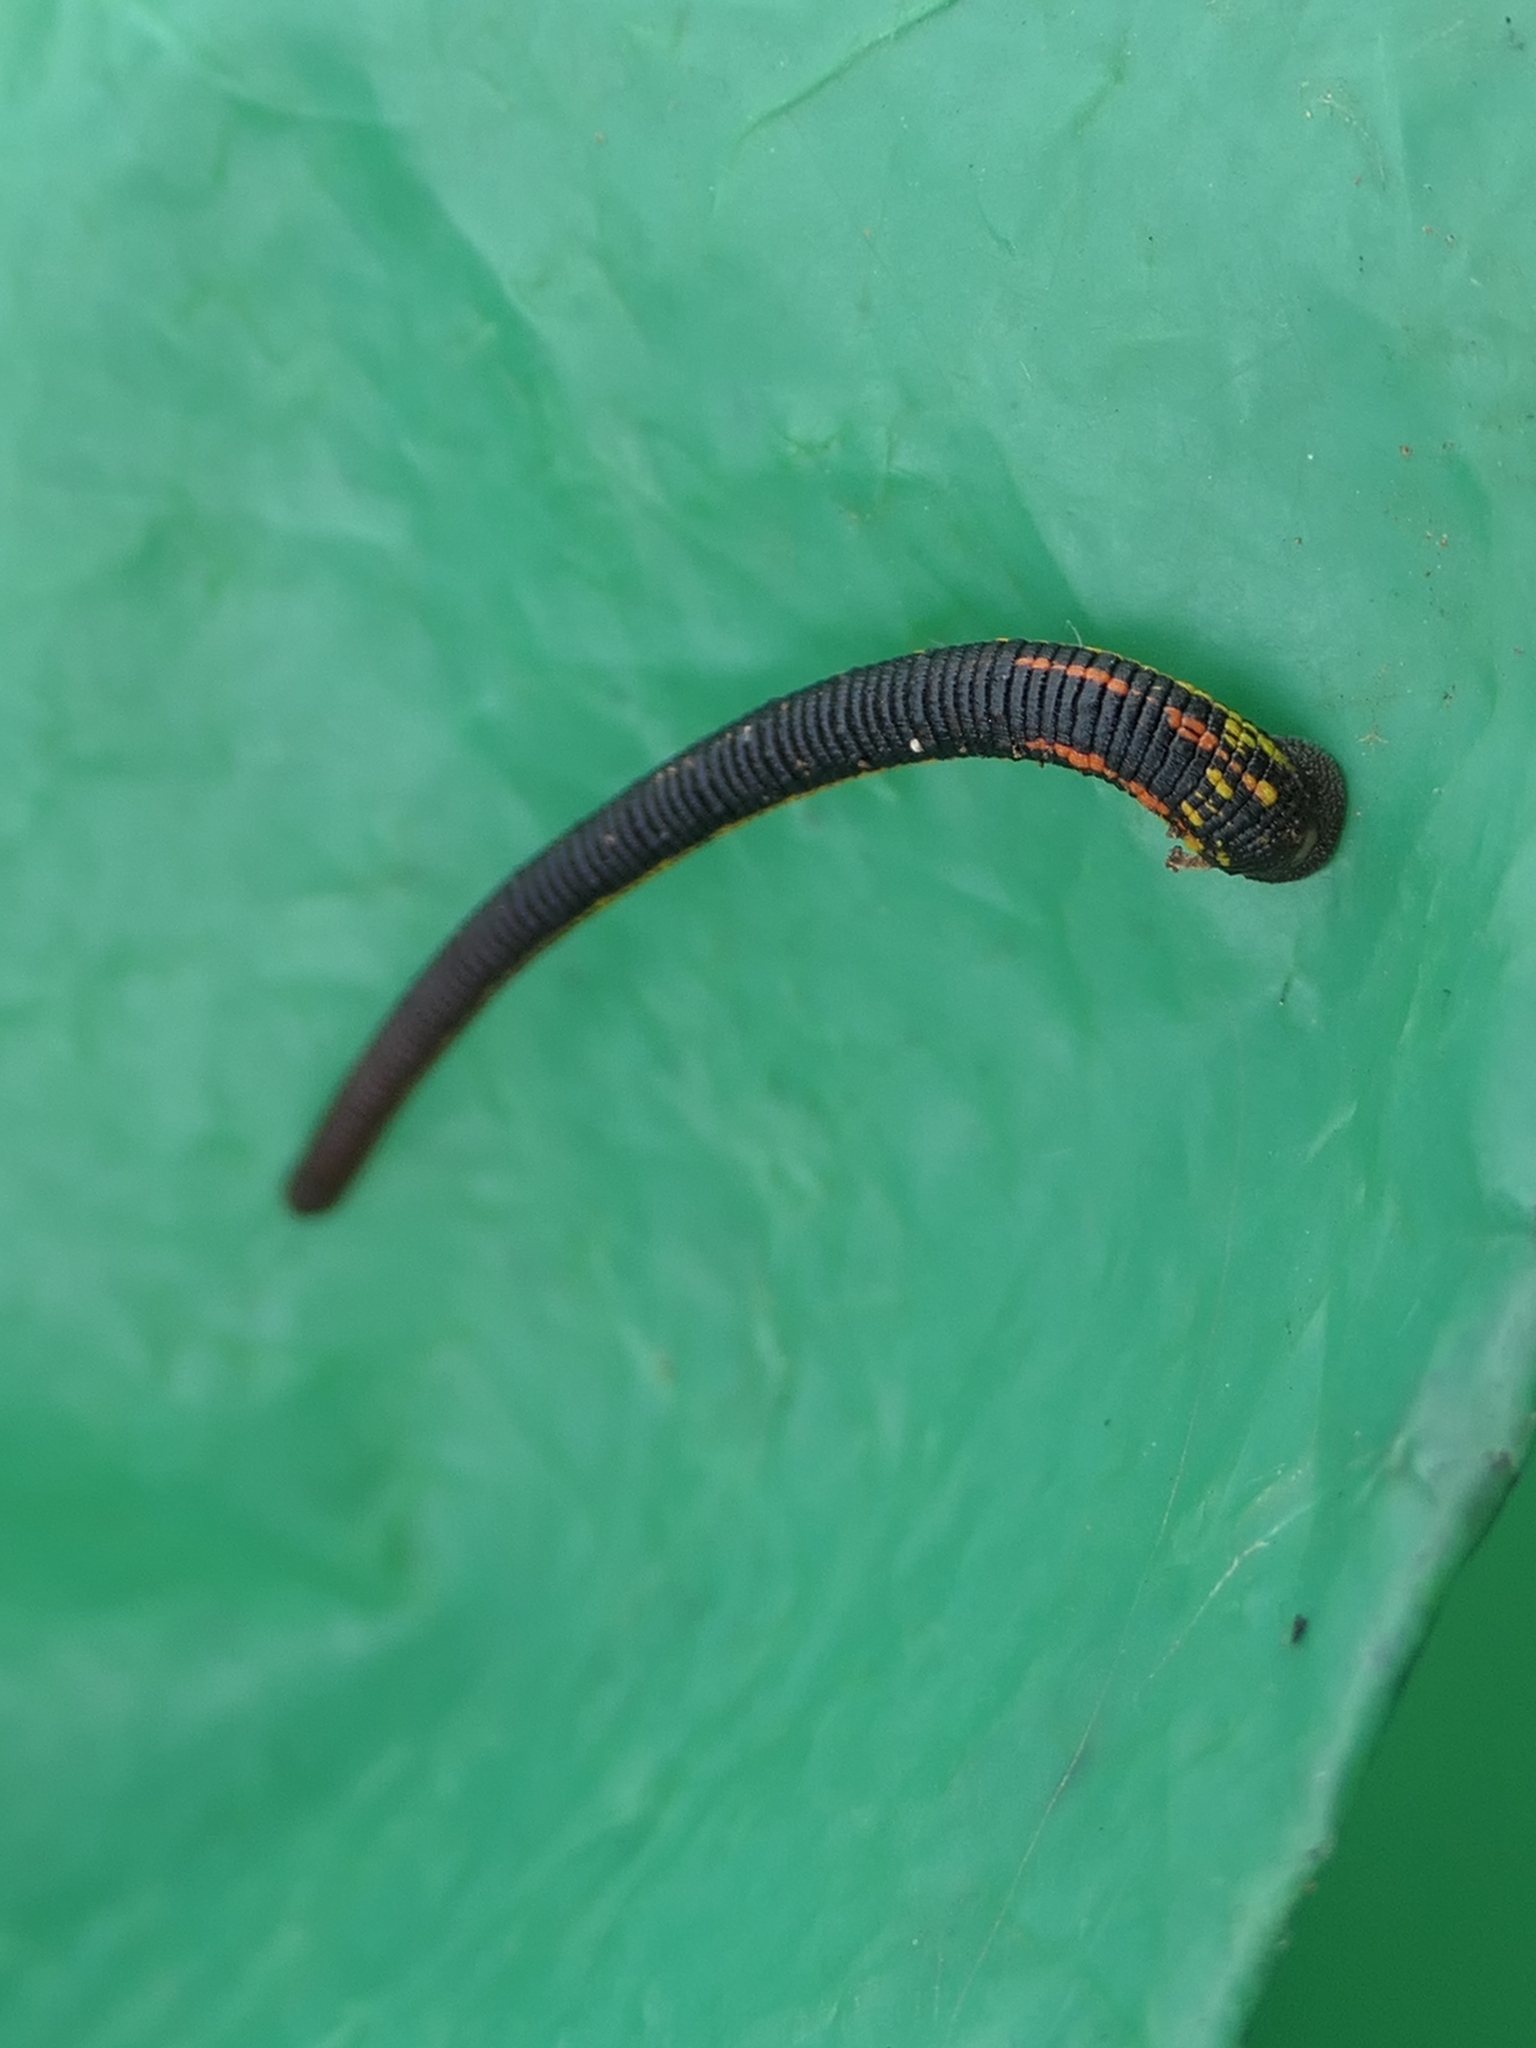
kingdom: Animalia
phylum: Annelida
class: Clitellata
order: Arhynchobdellida
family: Haemadipsidae
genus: Chtonobdella
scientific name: Chtonobdella limbata
